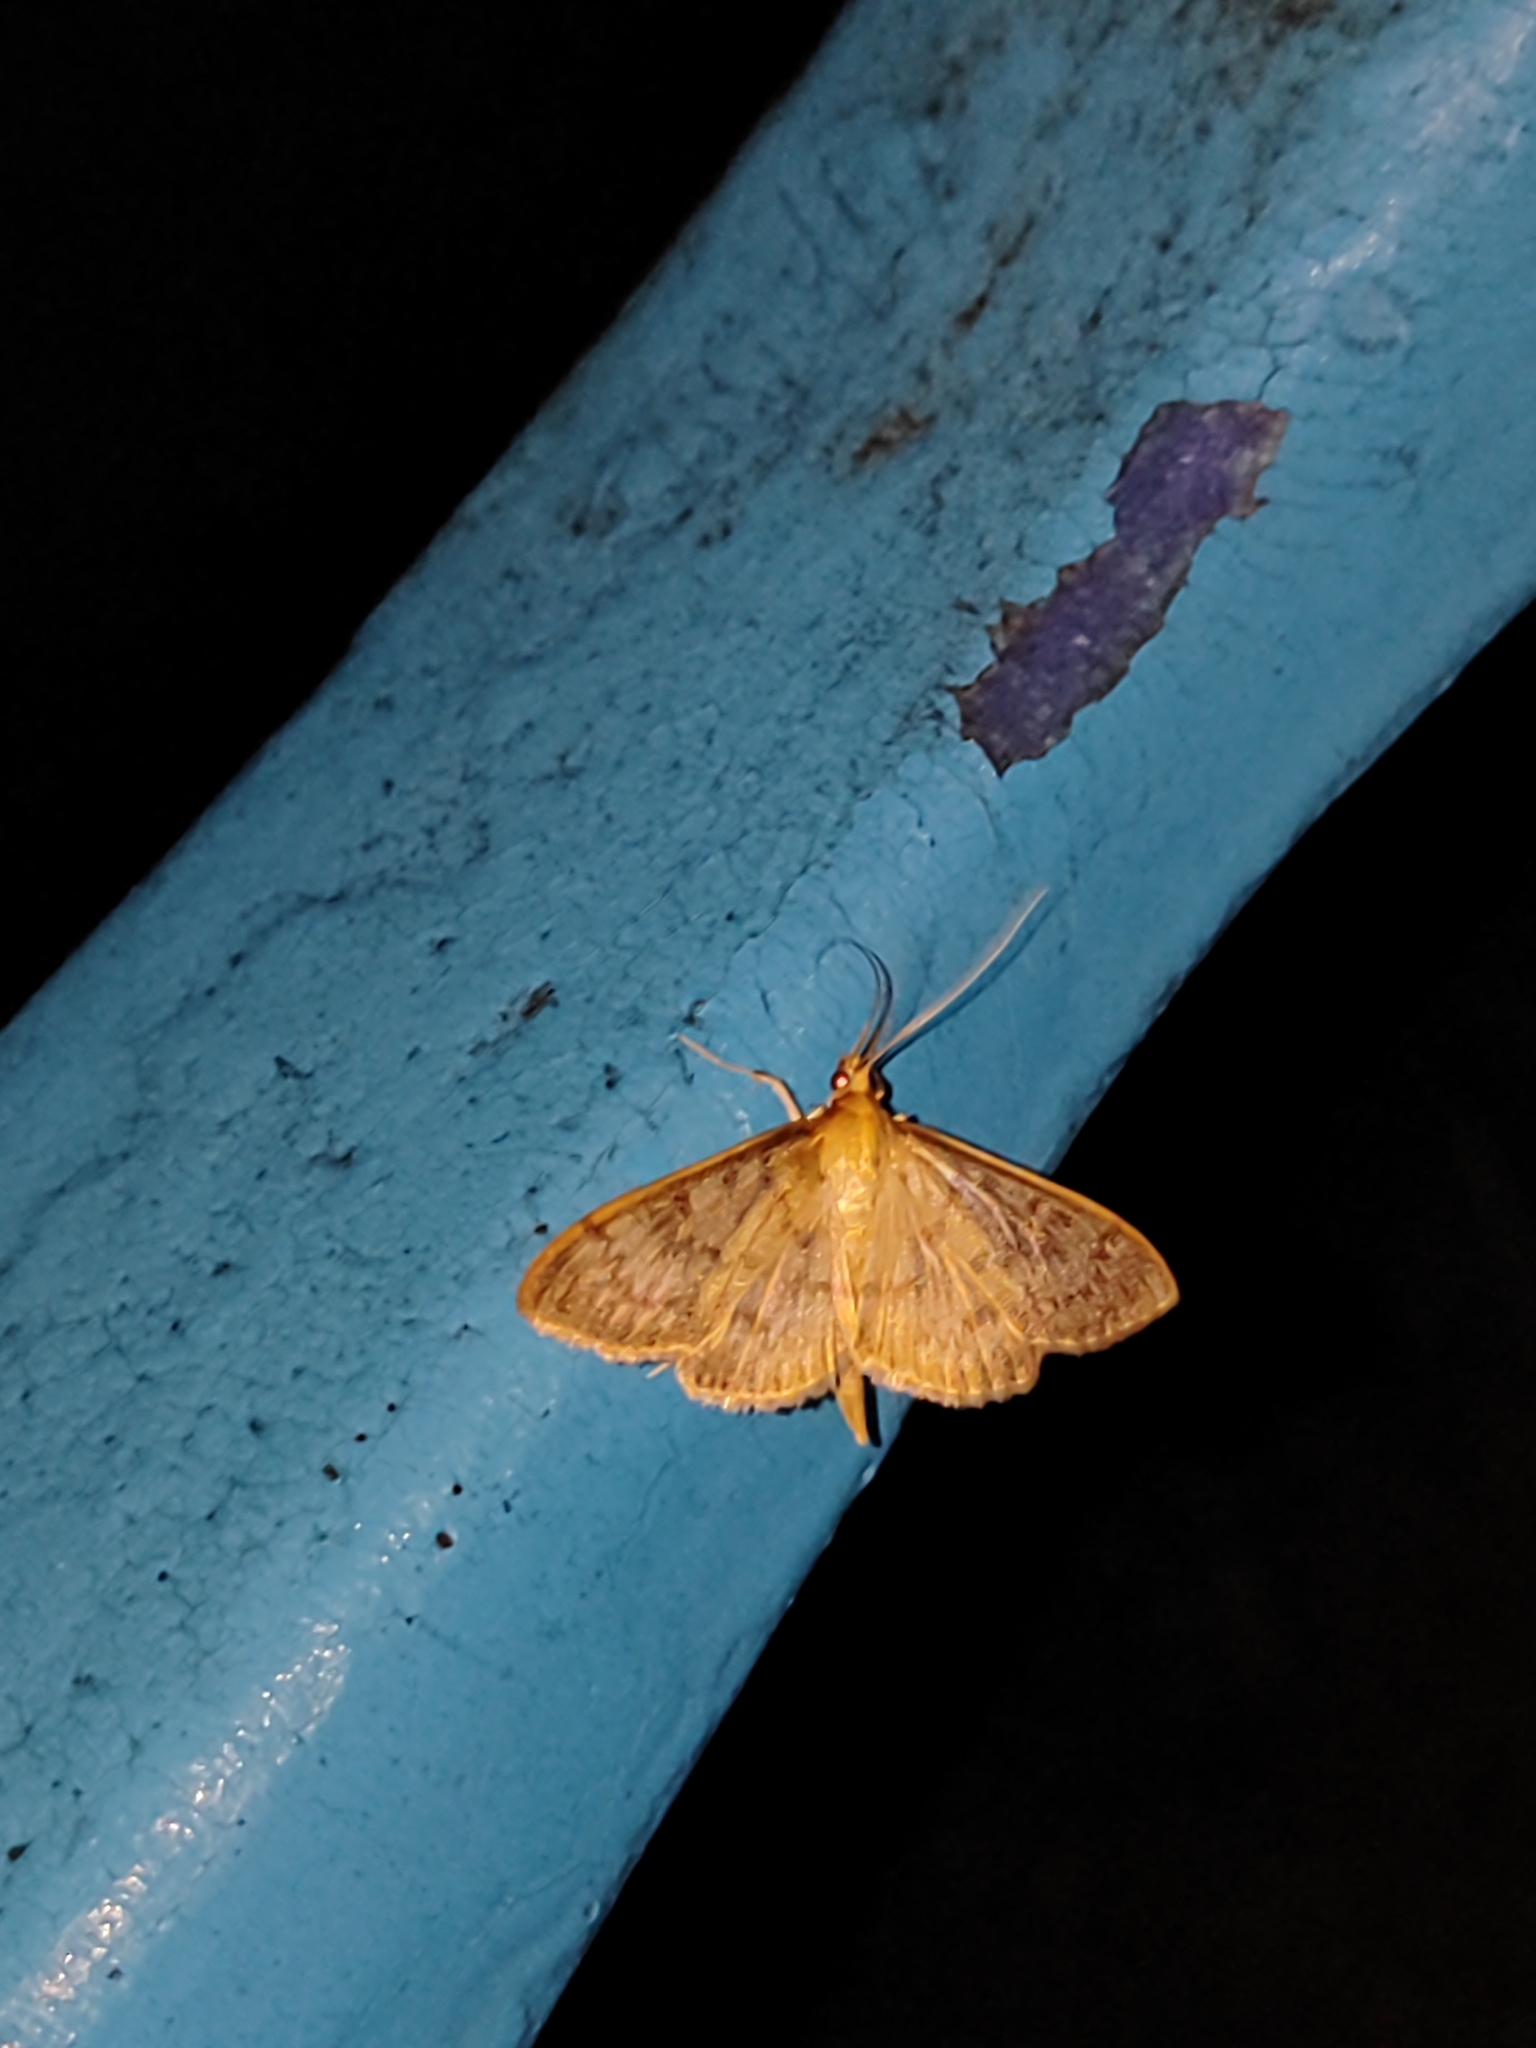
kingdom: Animalia
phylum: Arthropoda
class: Insecta
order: Lepidoptera
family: Crambidae
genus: Patania
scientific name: Patania ruralis
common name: Mother of pearl
